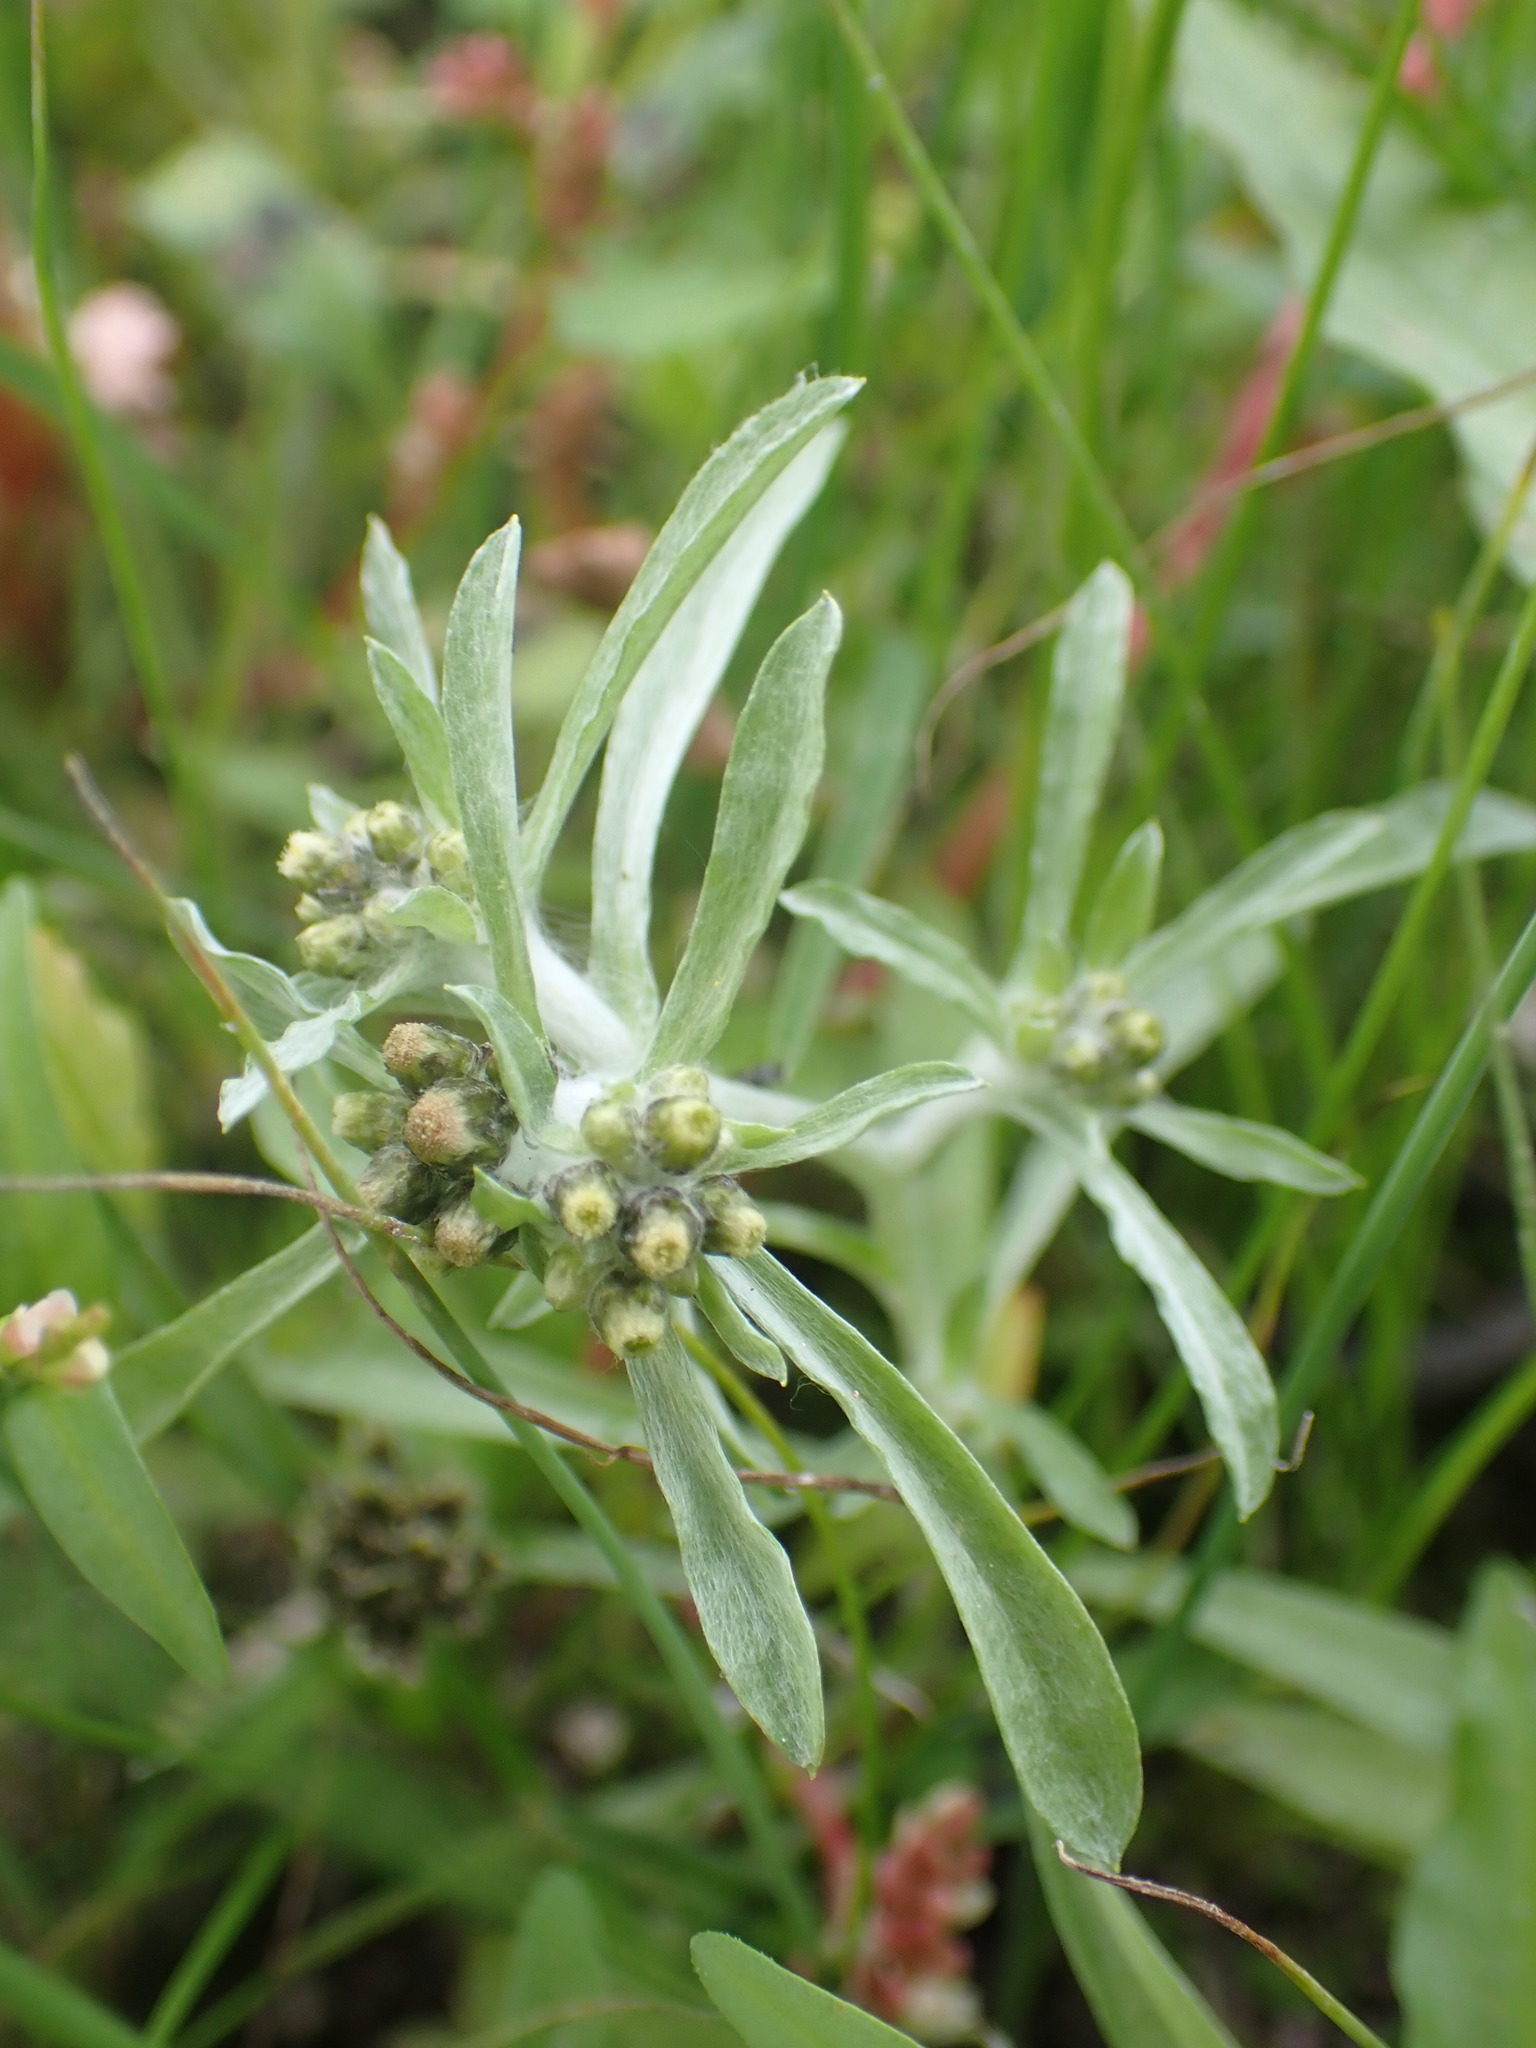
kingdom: Plantae
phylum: Tracheophyta
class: Magnoliopsida
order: Asterales
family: Asteraceae
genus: Gnaphalium
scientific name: Gnaphalium uliginosum
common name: Marsh cudweed
